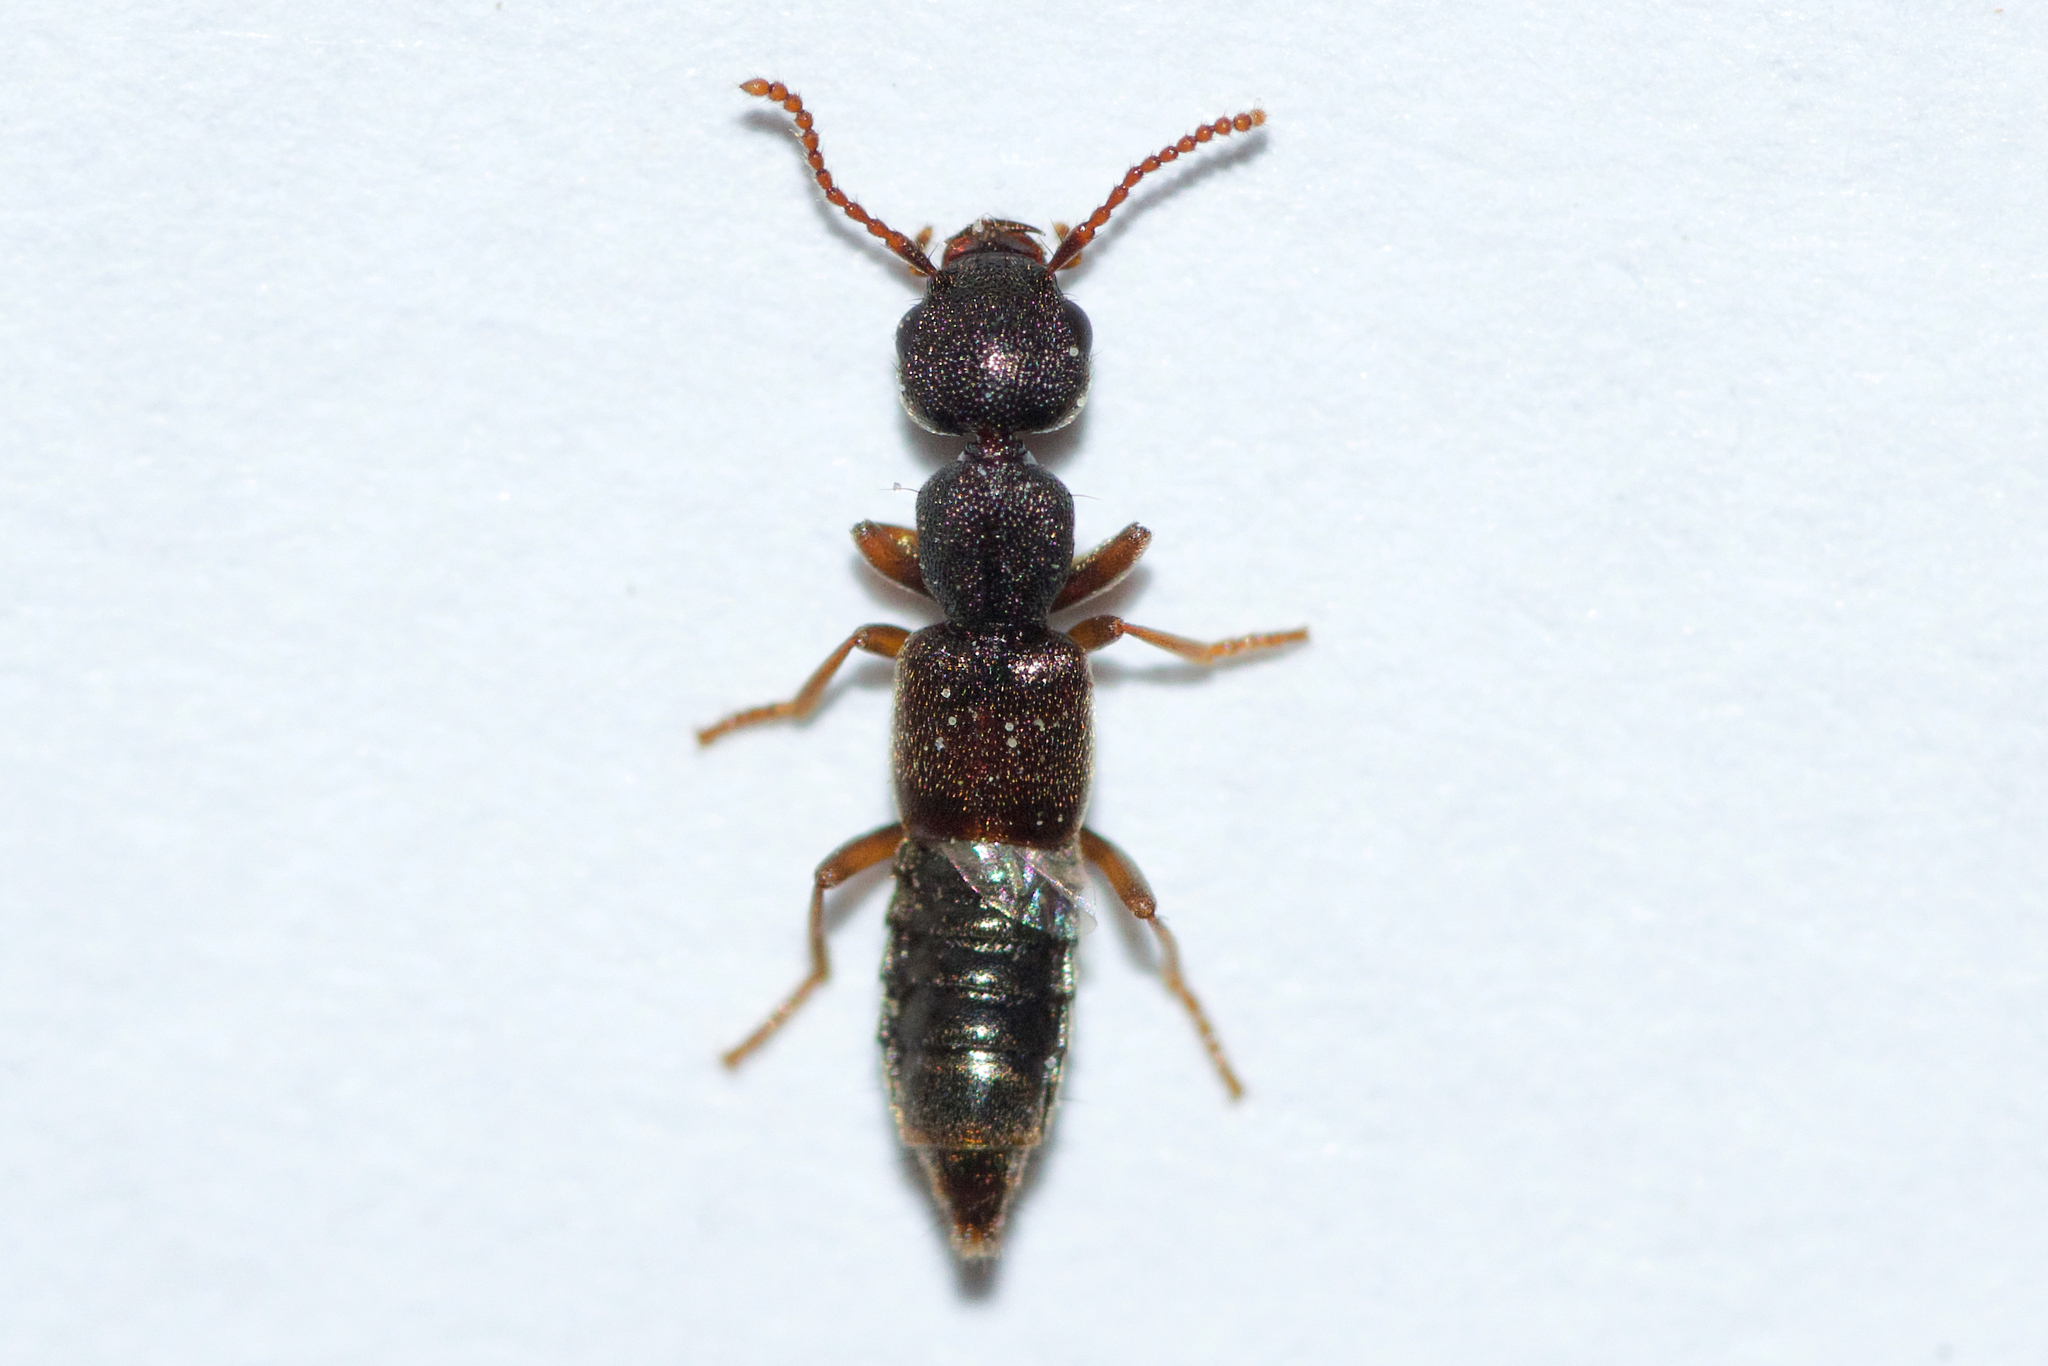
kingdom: Animalia
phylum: Arthropoda
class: Insecta
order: Coleoptera
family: Staphylinidae
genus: Rugilus
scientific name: Rugilus rufipes
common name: Staph beetle
